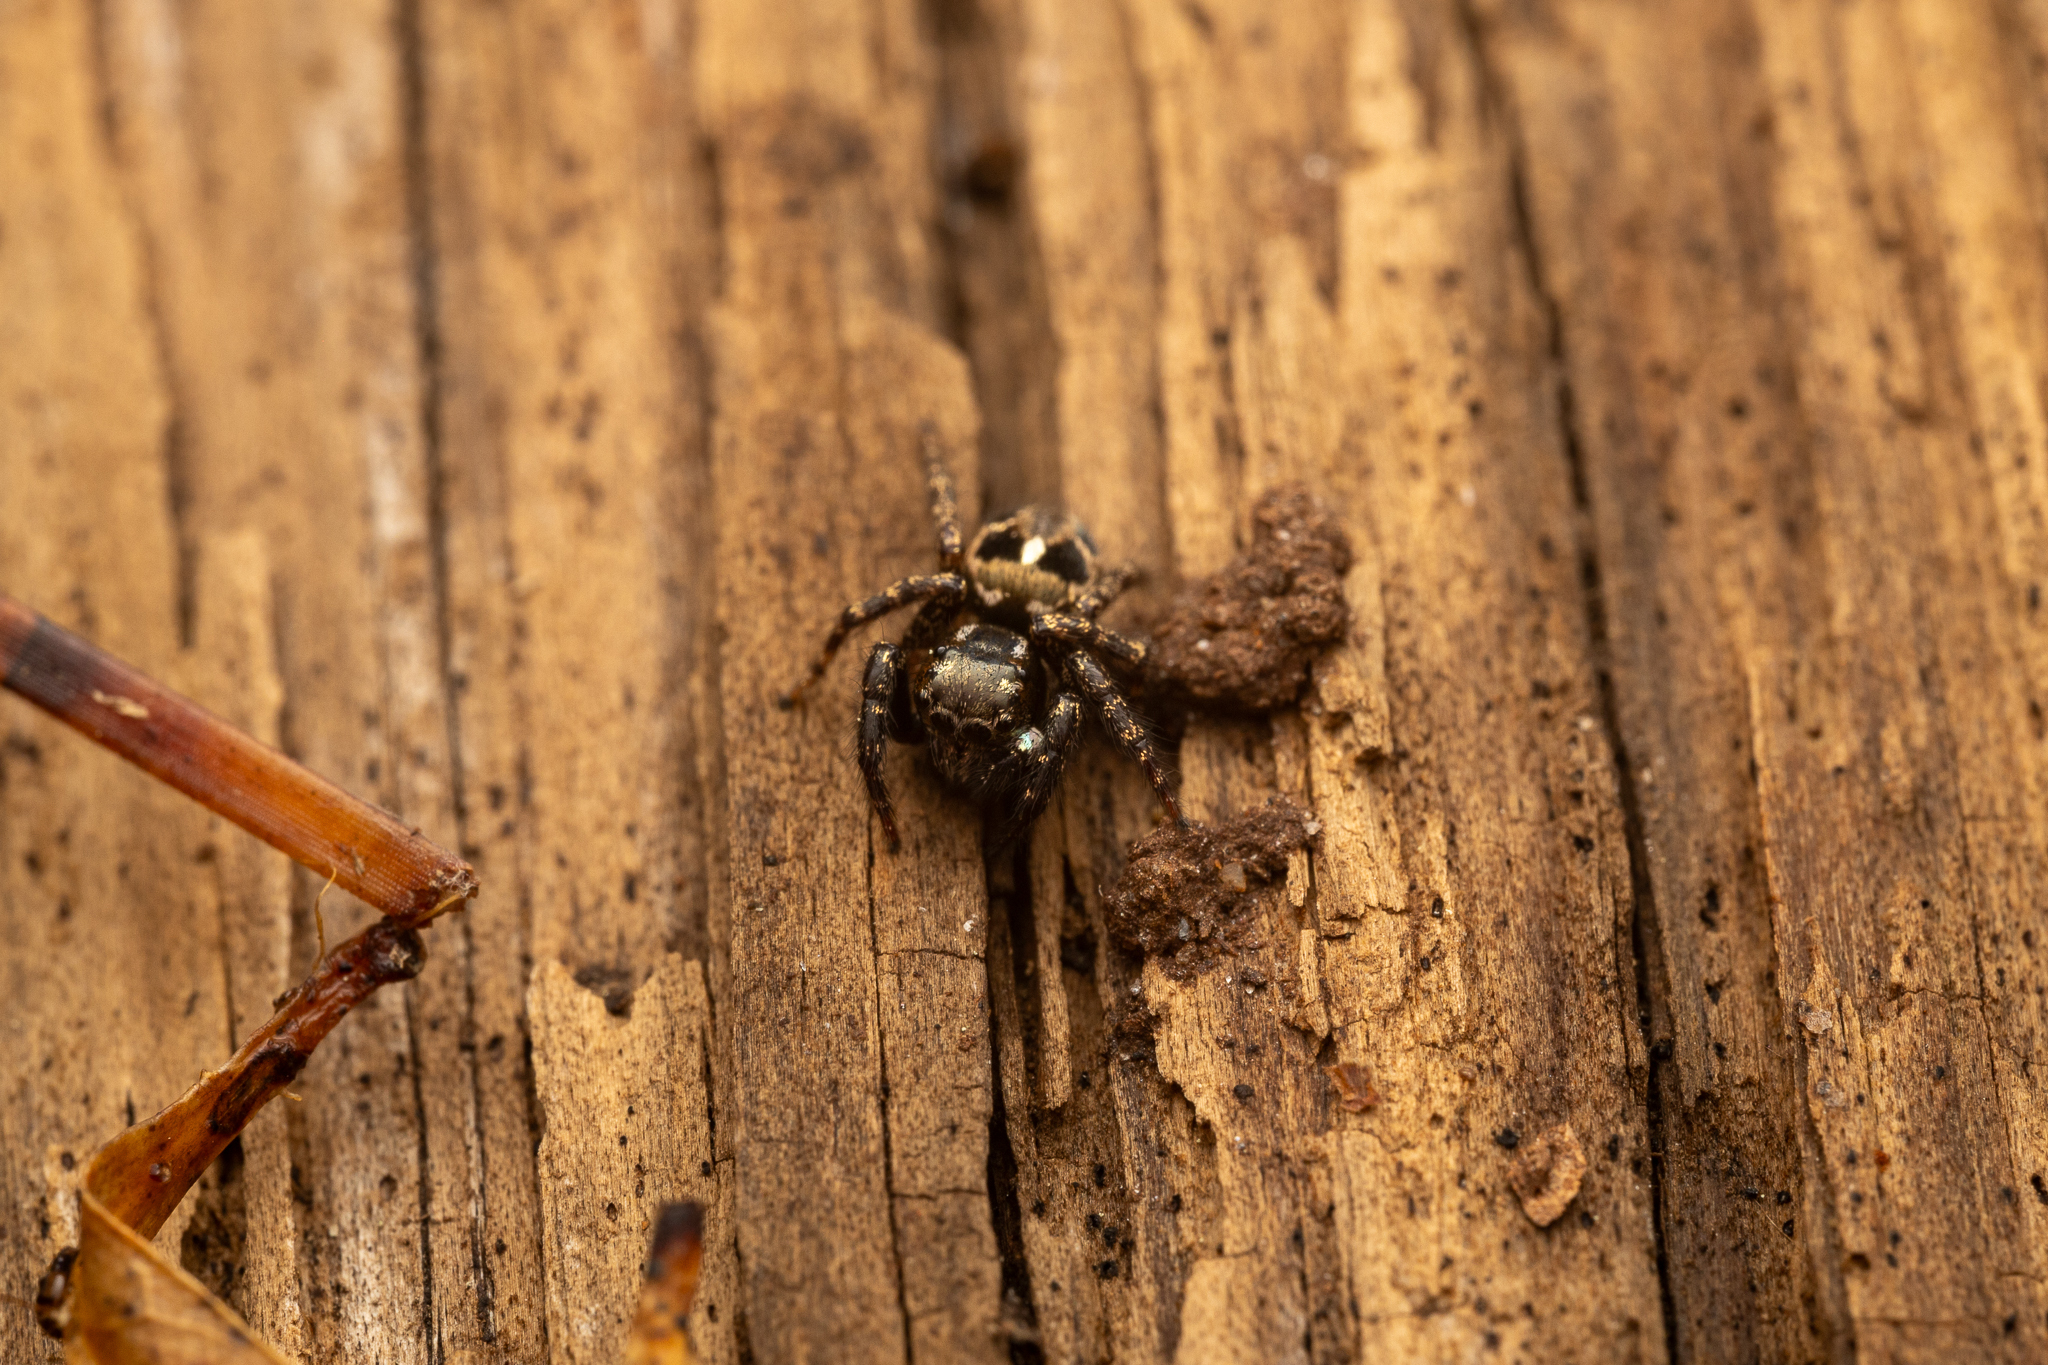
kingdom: Animalia
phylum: Arthropoda
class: Arachnida
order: Araneae
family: Salticidae
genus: Anasaitis
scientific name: Anasaitis canosa
